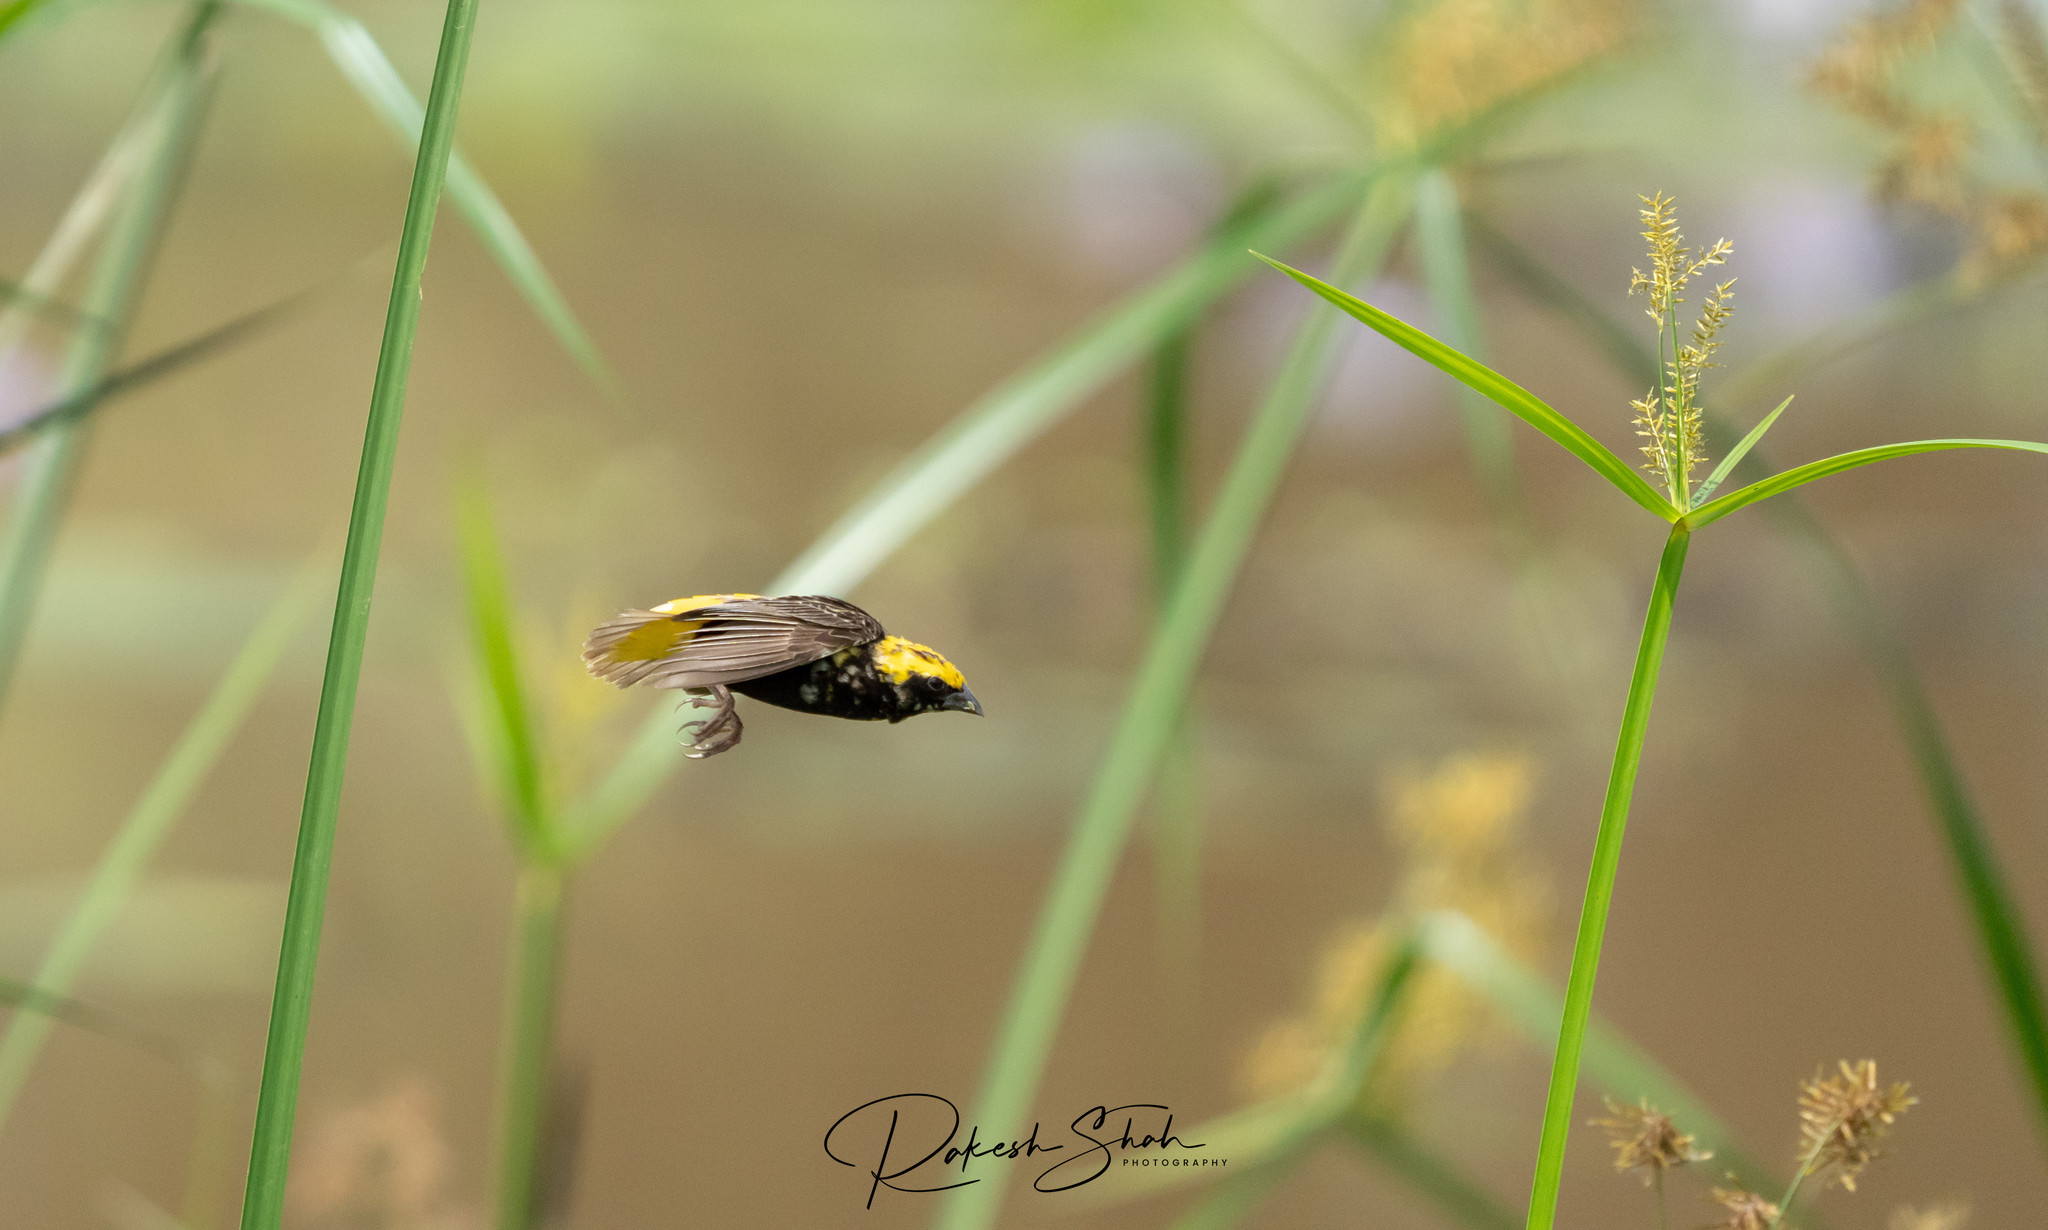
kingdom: Animalia
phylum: Chordata
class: Aves
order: Passeriformes
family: Ploceidae
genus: Euplectes
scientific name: Euplectes afer
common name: Yellow-crowned bishop
